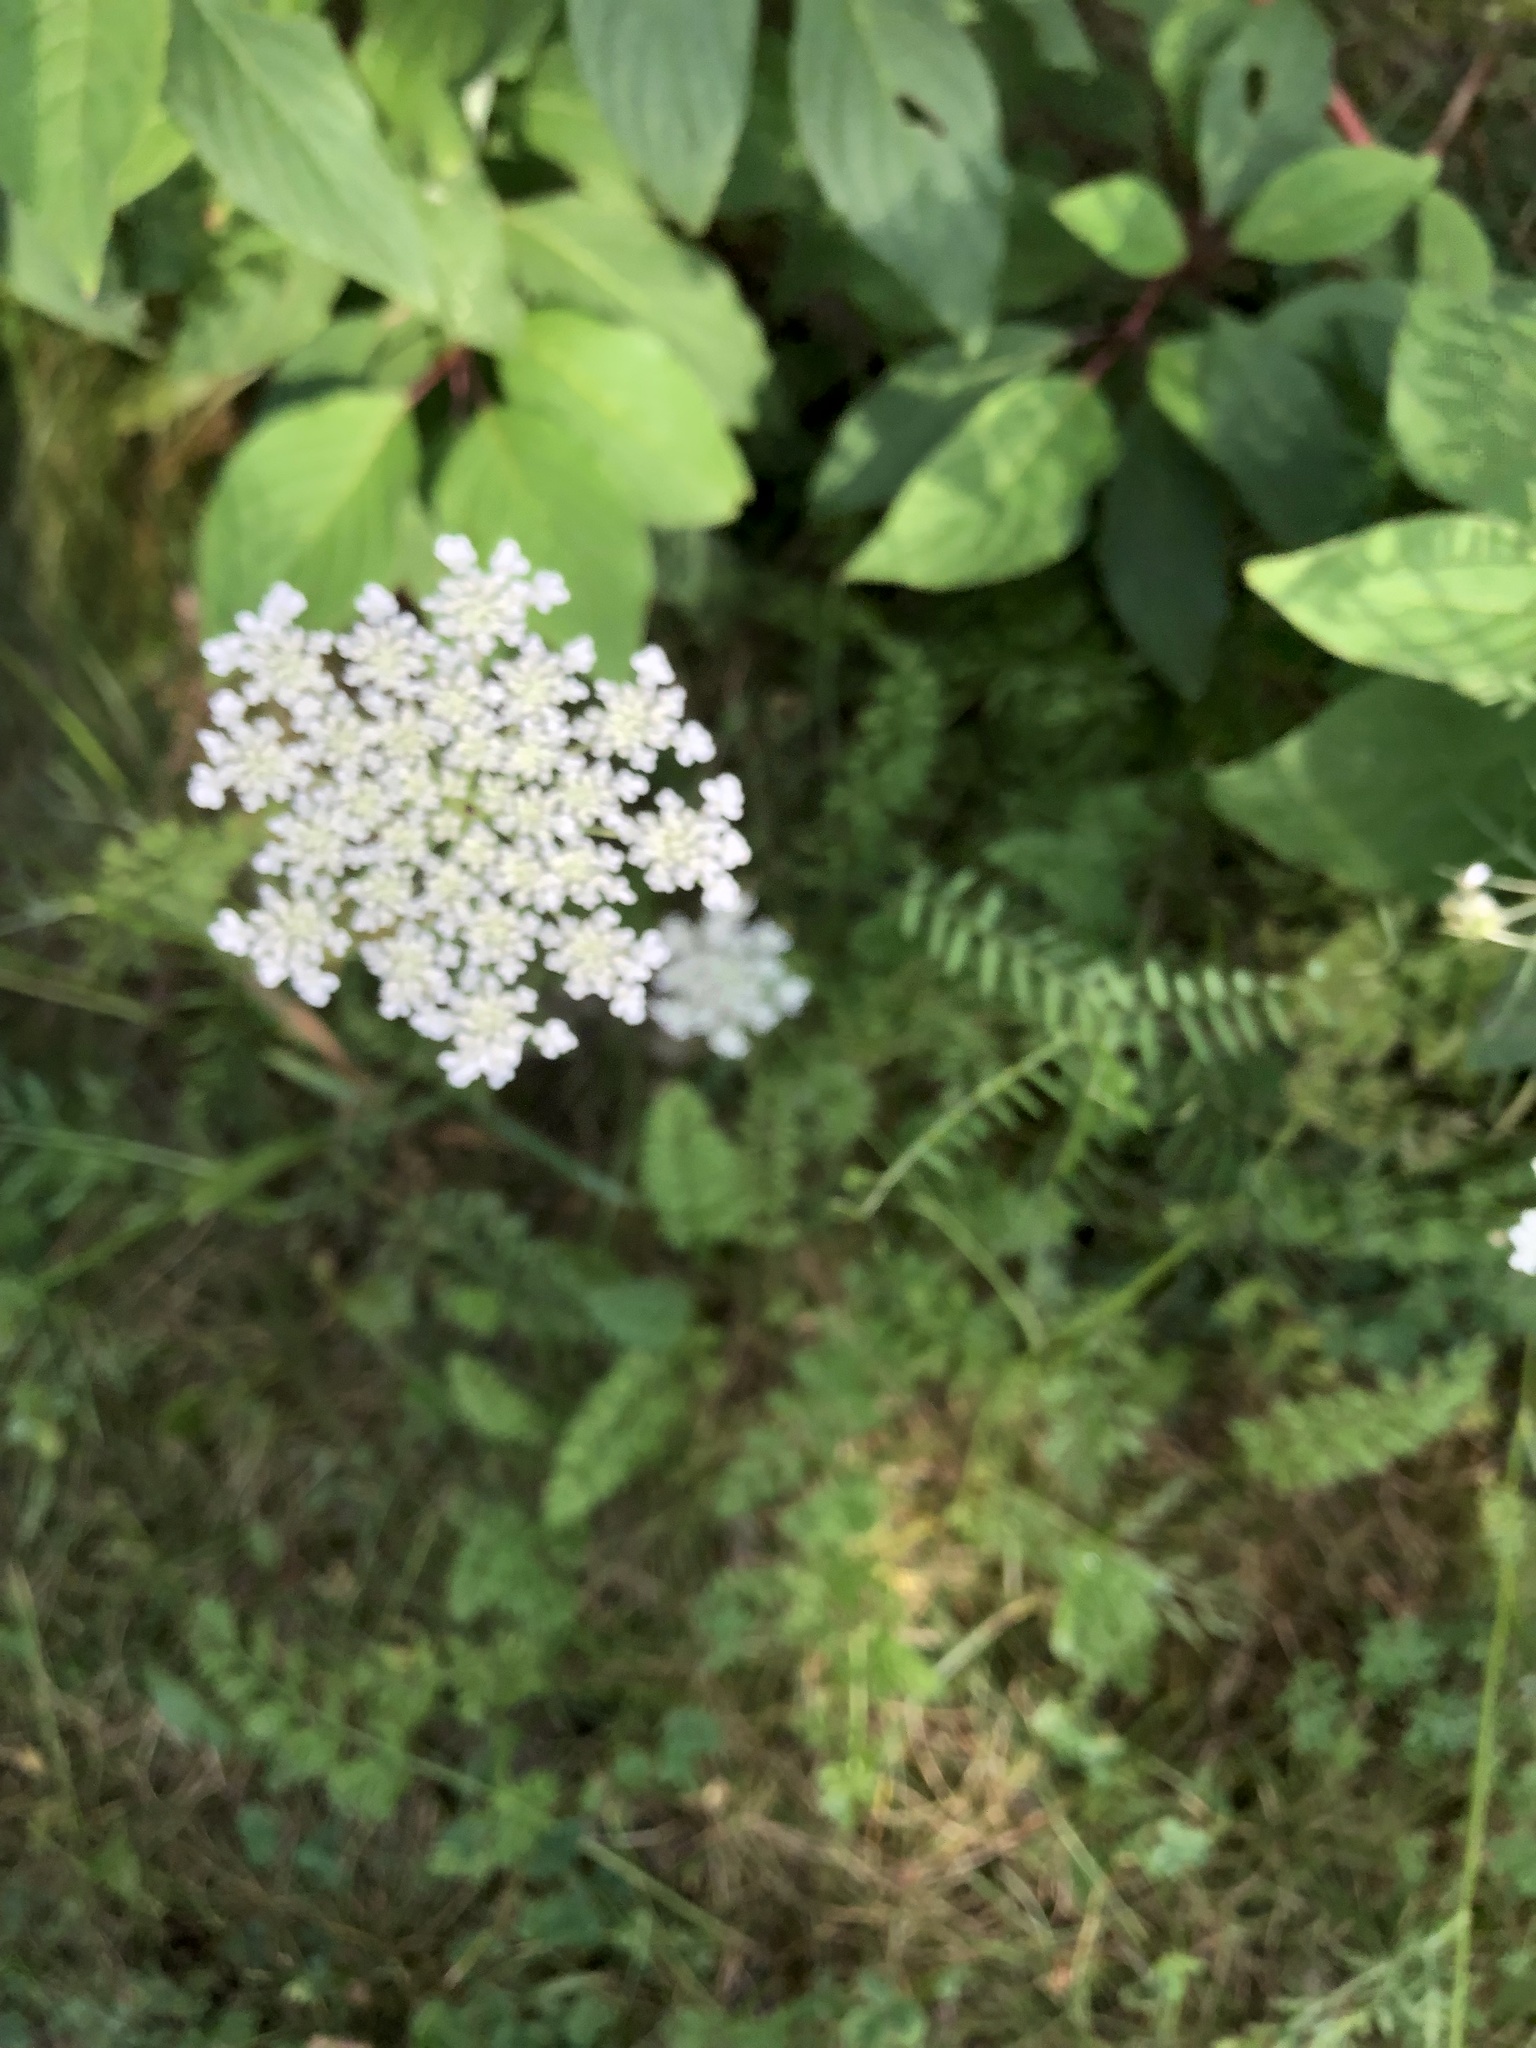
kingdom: Plantae
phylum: Tracheophyta
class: Magnoliopsida
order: Apiales
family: Apiaceae
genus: Daucus
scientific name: Daucus carota
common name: Wild carrot
